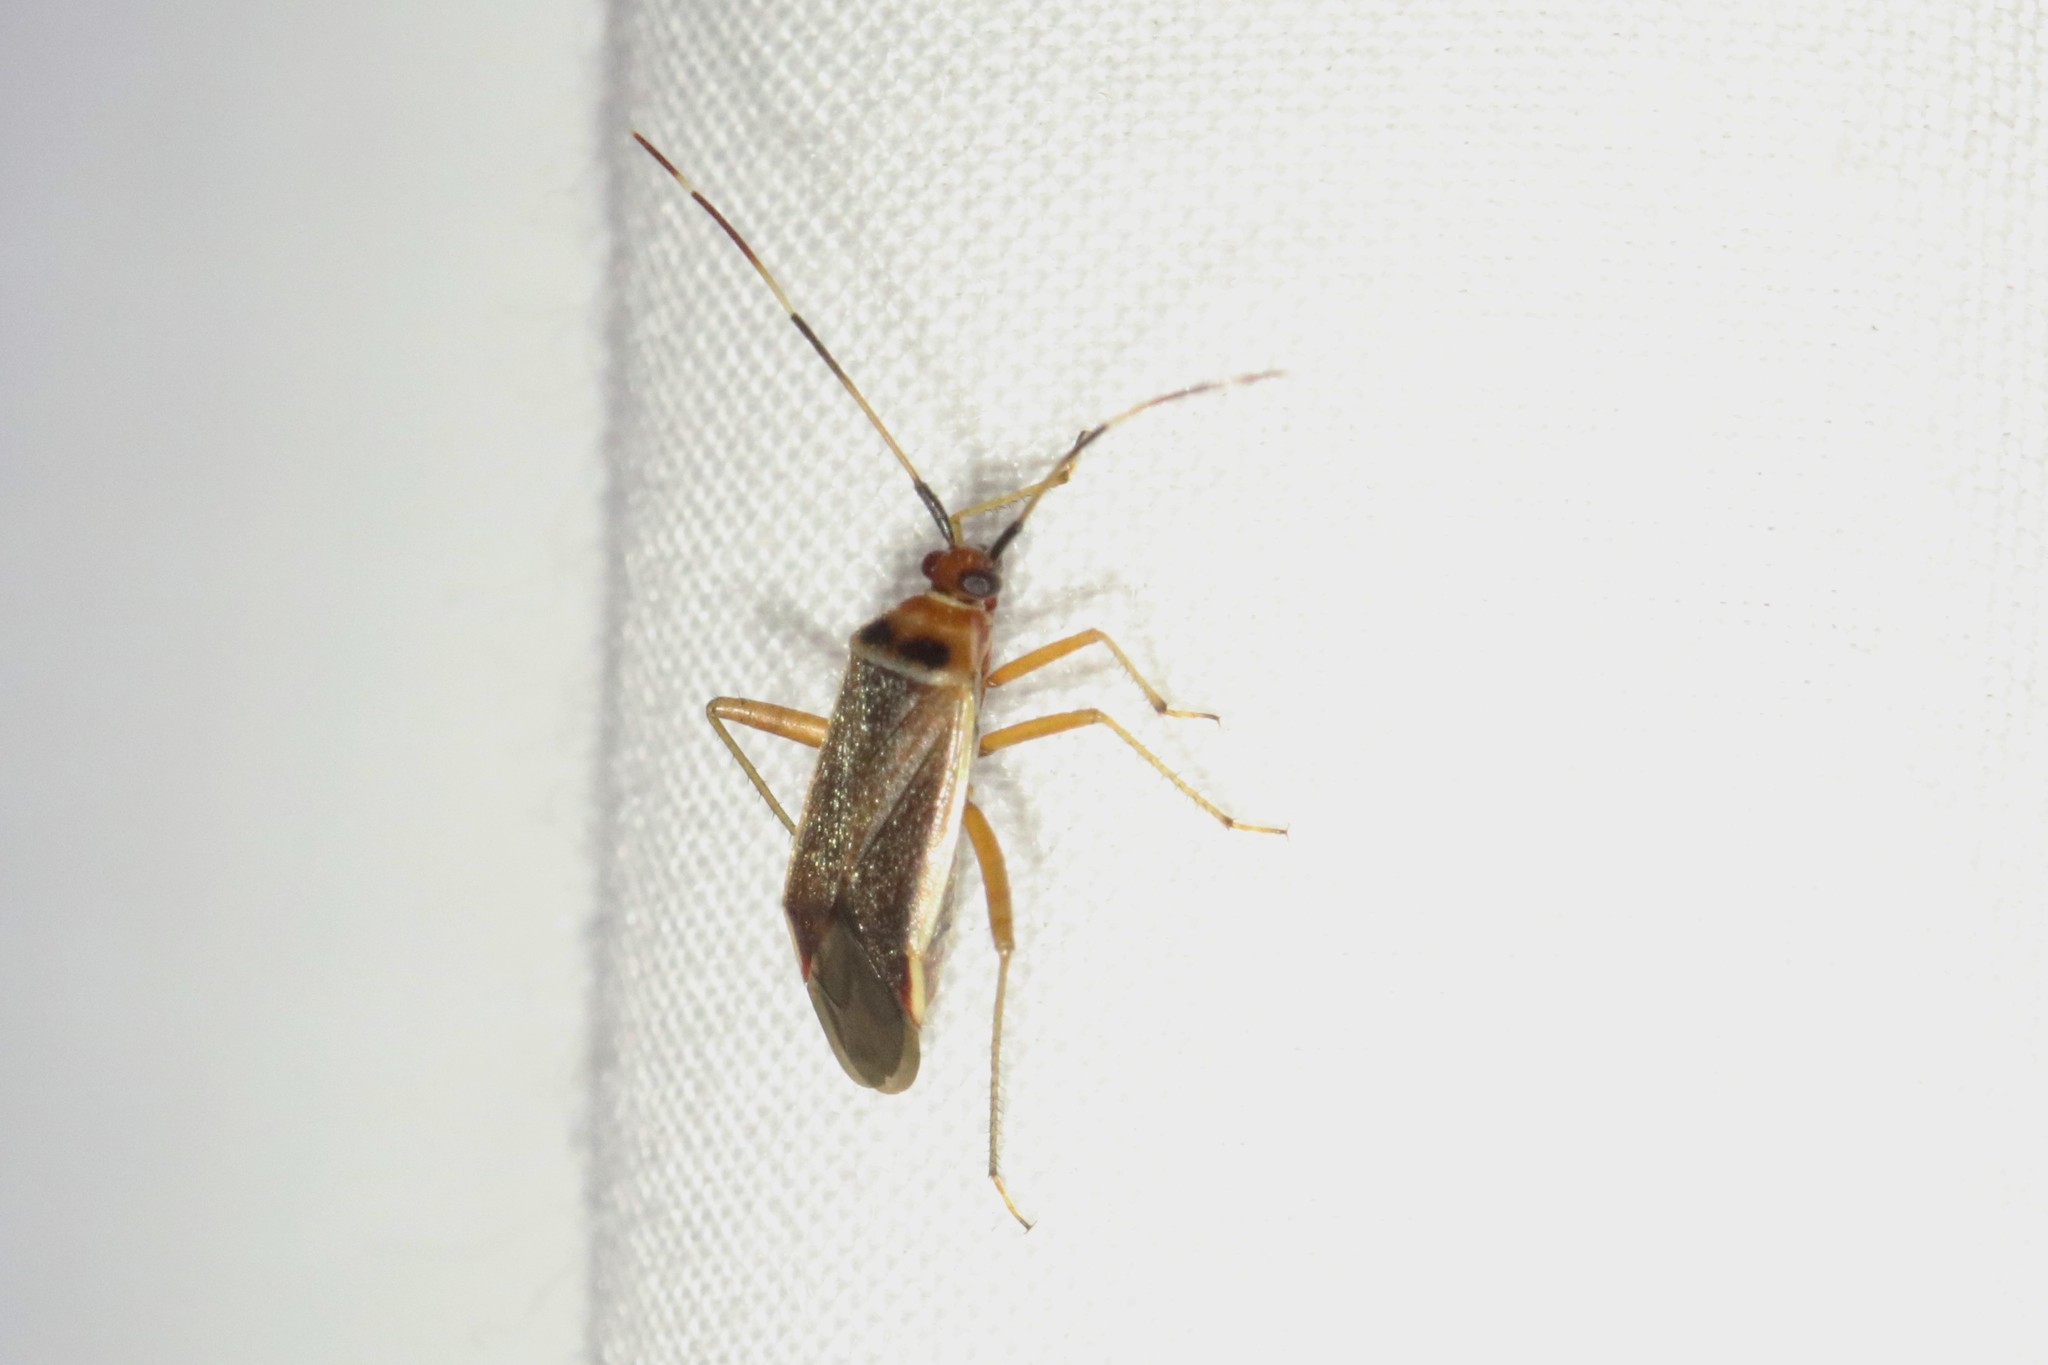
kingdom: Animalia
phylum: Arthropoda
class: Insecta
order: Hemiptera
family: Miridae
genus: Adelphocoris
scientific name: Adelphocoris rapidus
